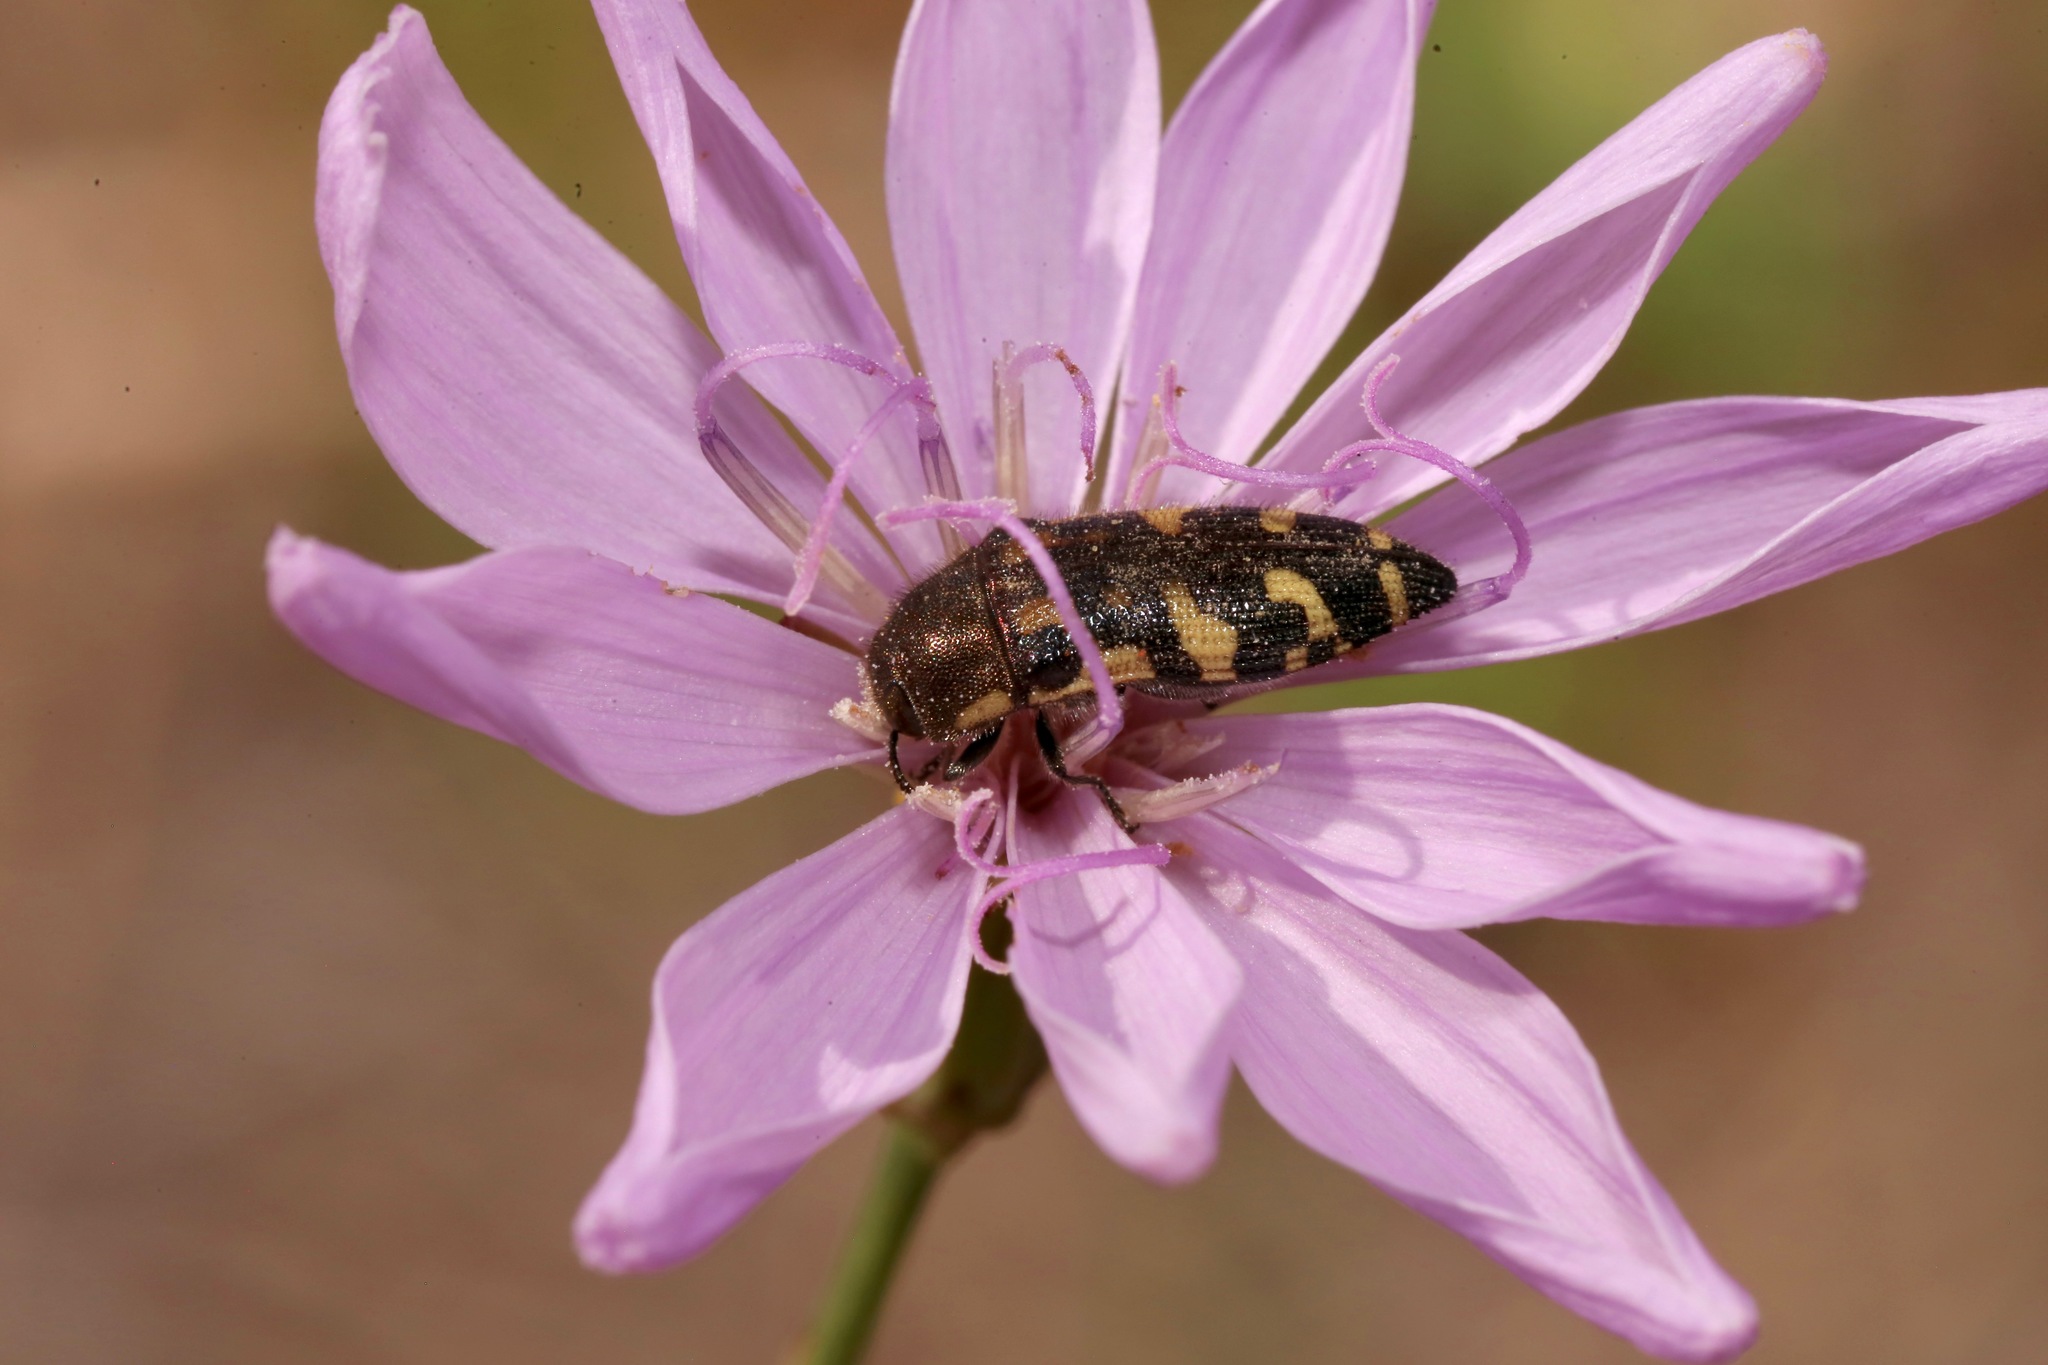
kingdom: Animalia
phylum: Arthropoda
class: Insecta
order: Coleoptera
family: Buprestidae
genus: Acmaeodera
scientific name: Acmaeodera pulchella
